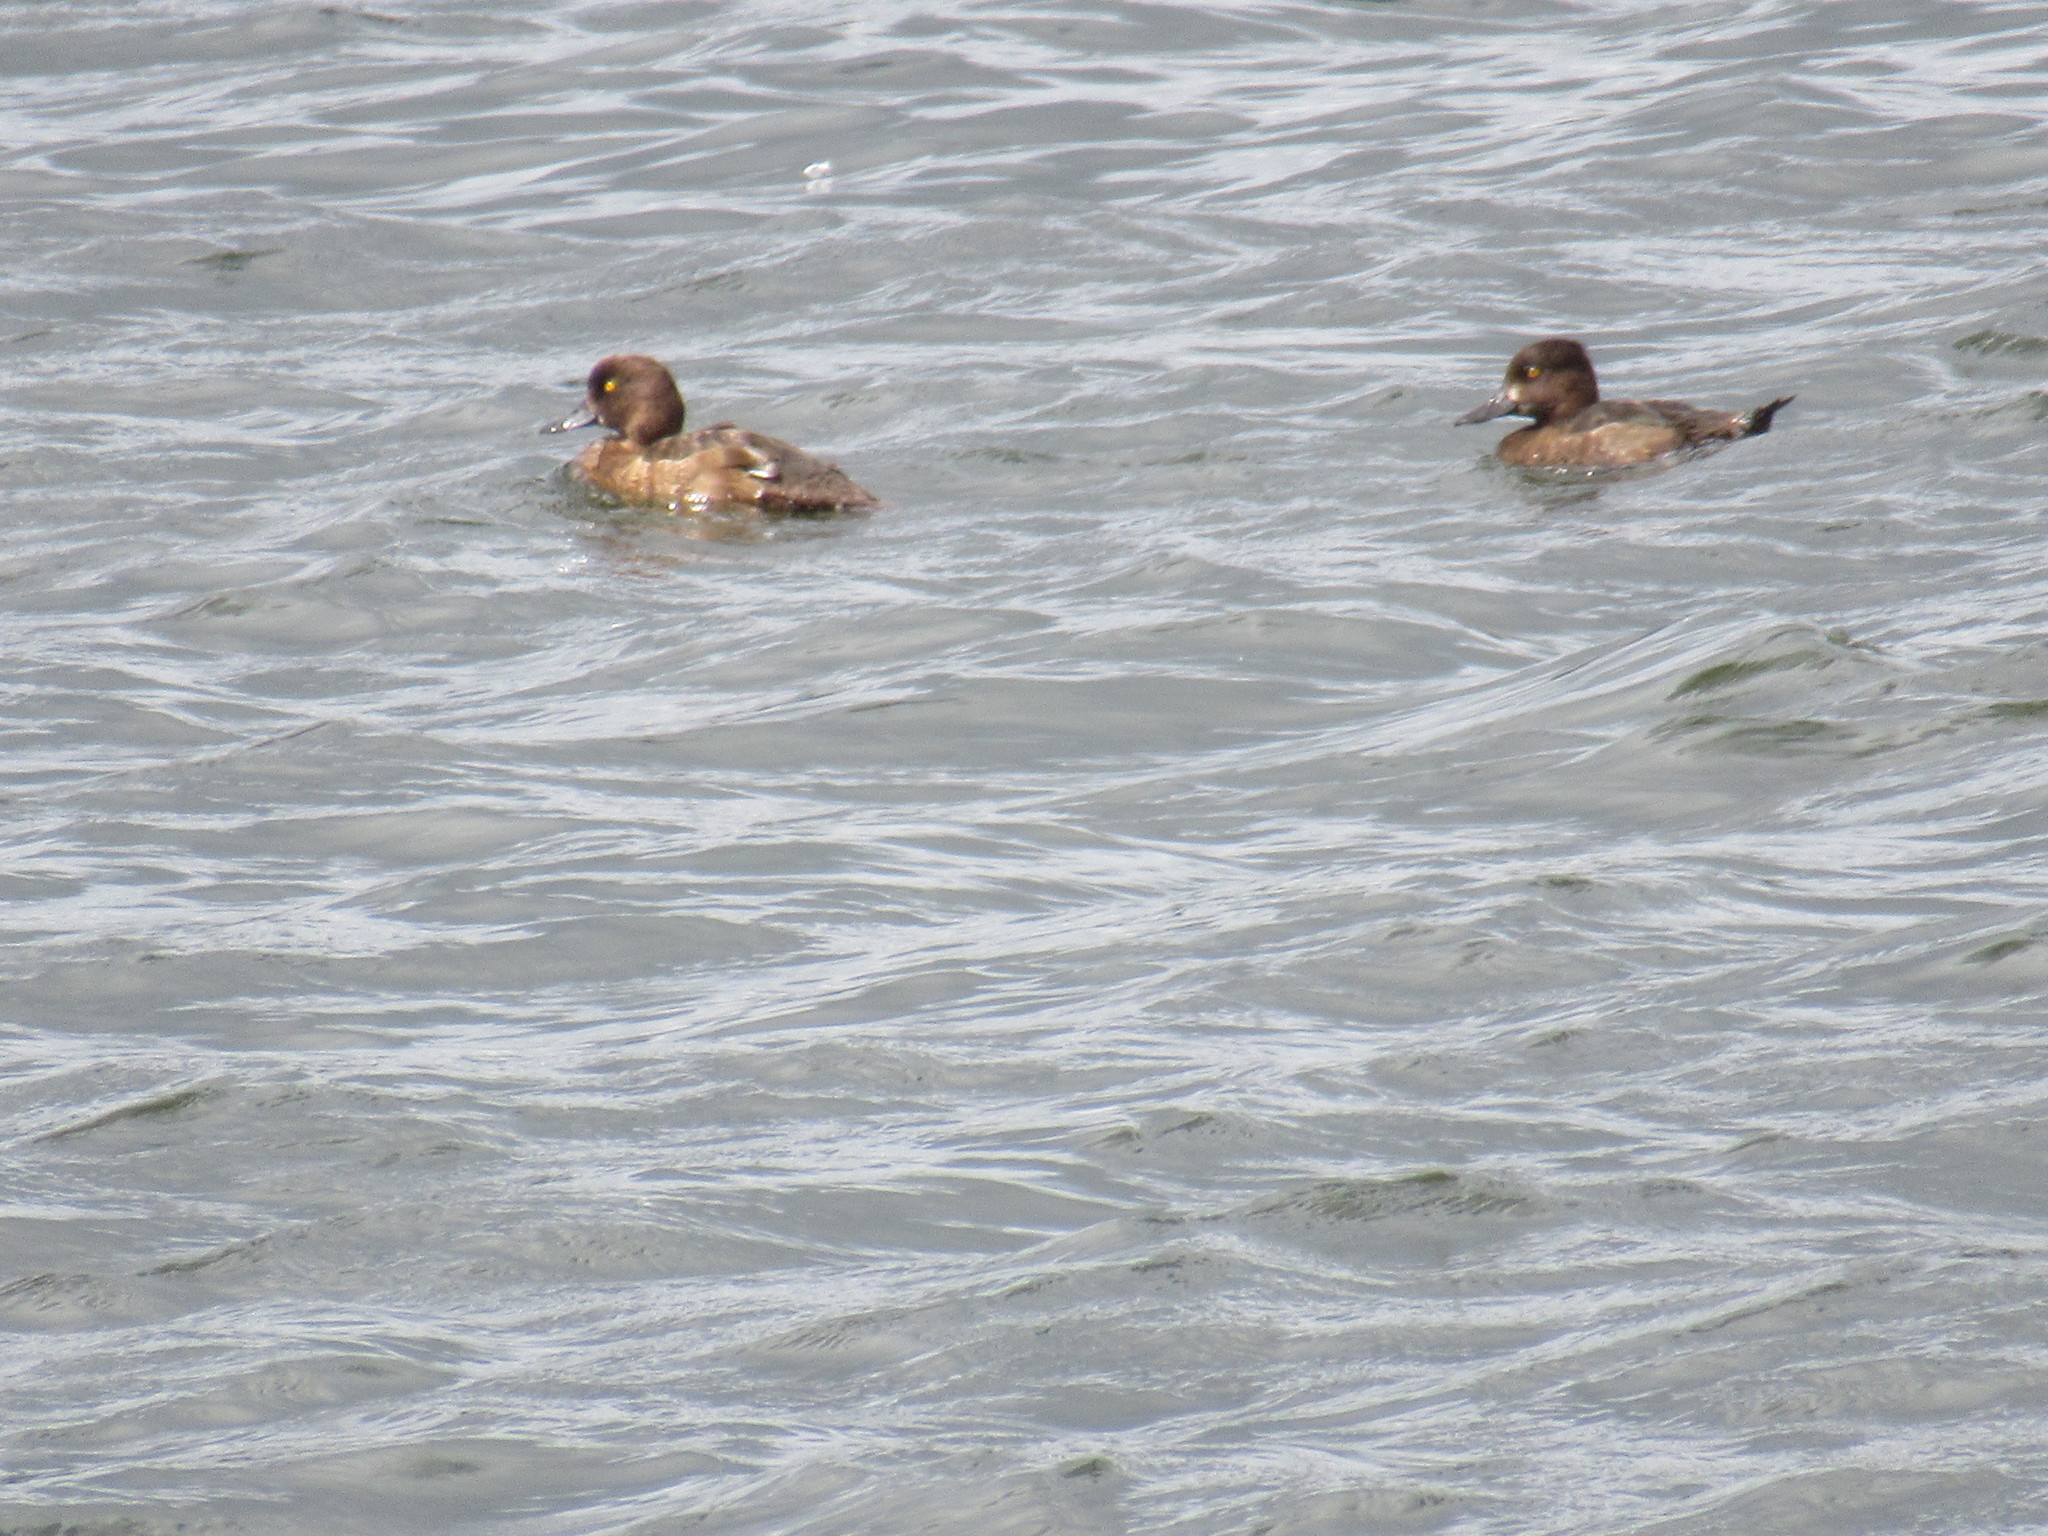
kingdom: Animalia
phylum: Chordata
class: Aves
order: Anseriformes
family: Anatidae
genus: Aythya
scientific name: Aythya fuligula
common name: Tufted duck
